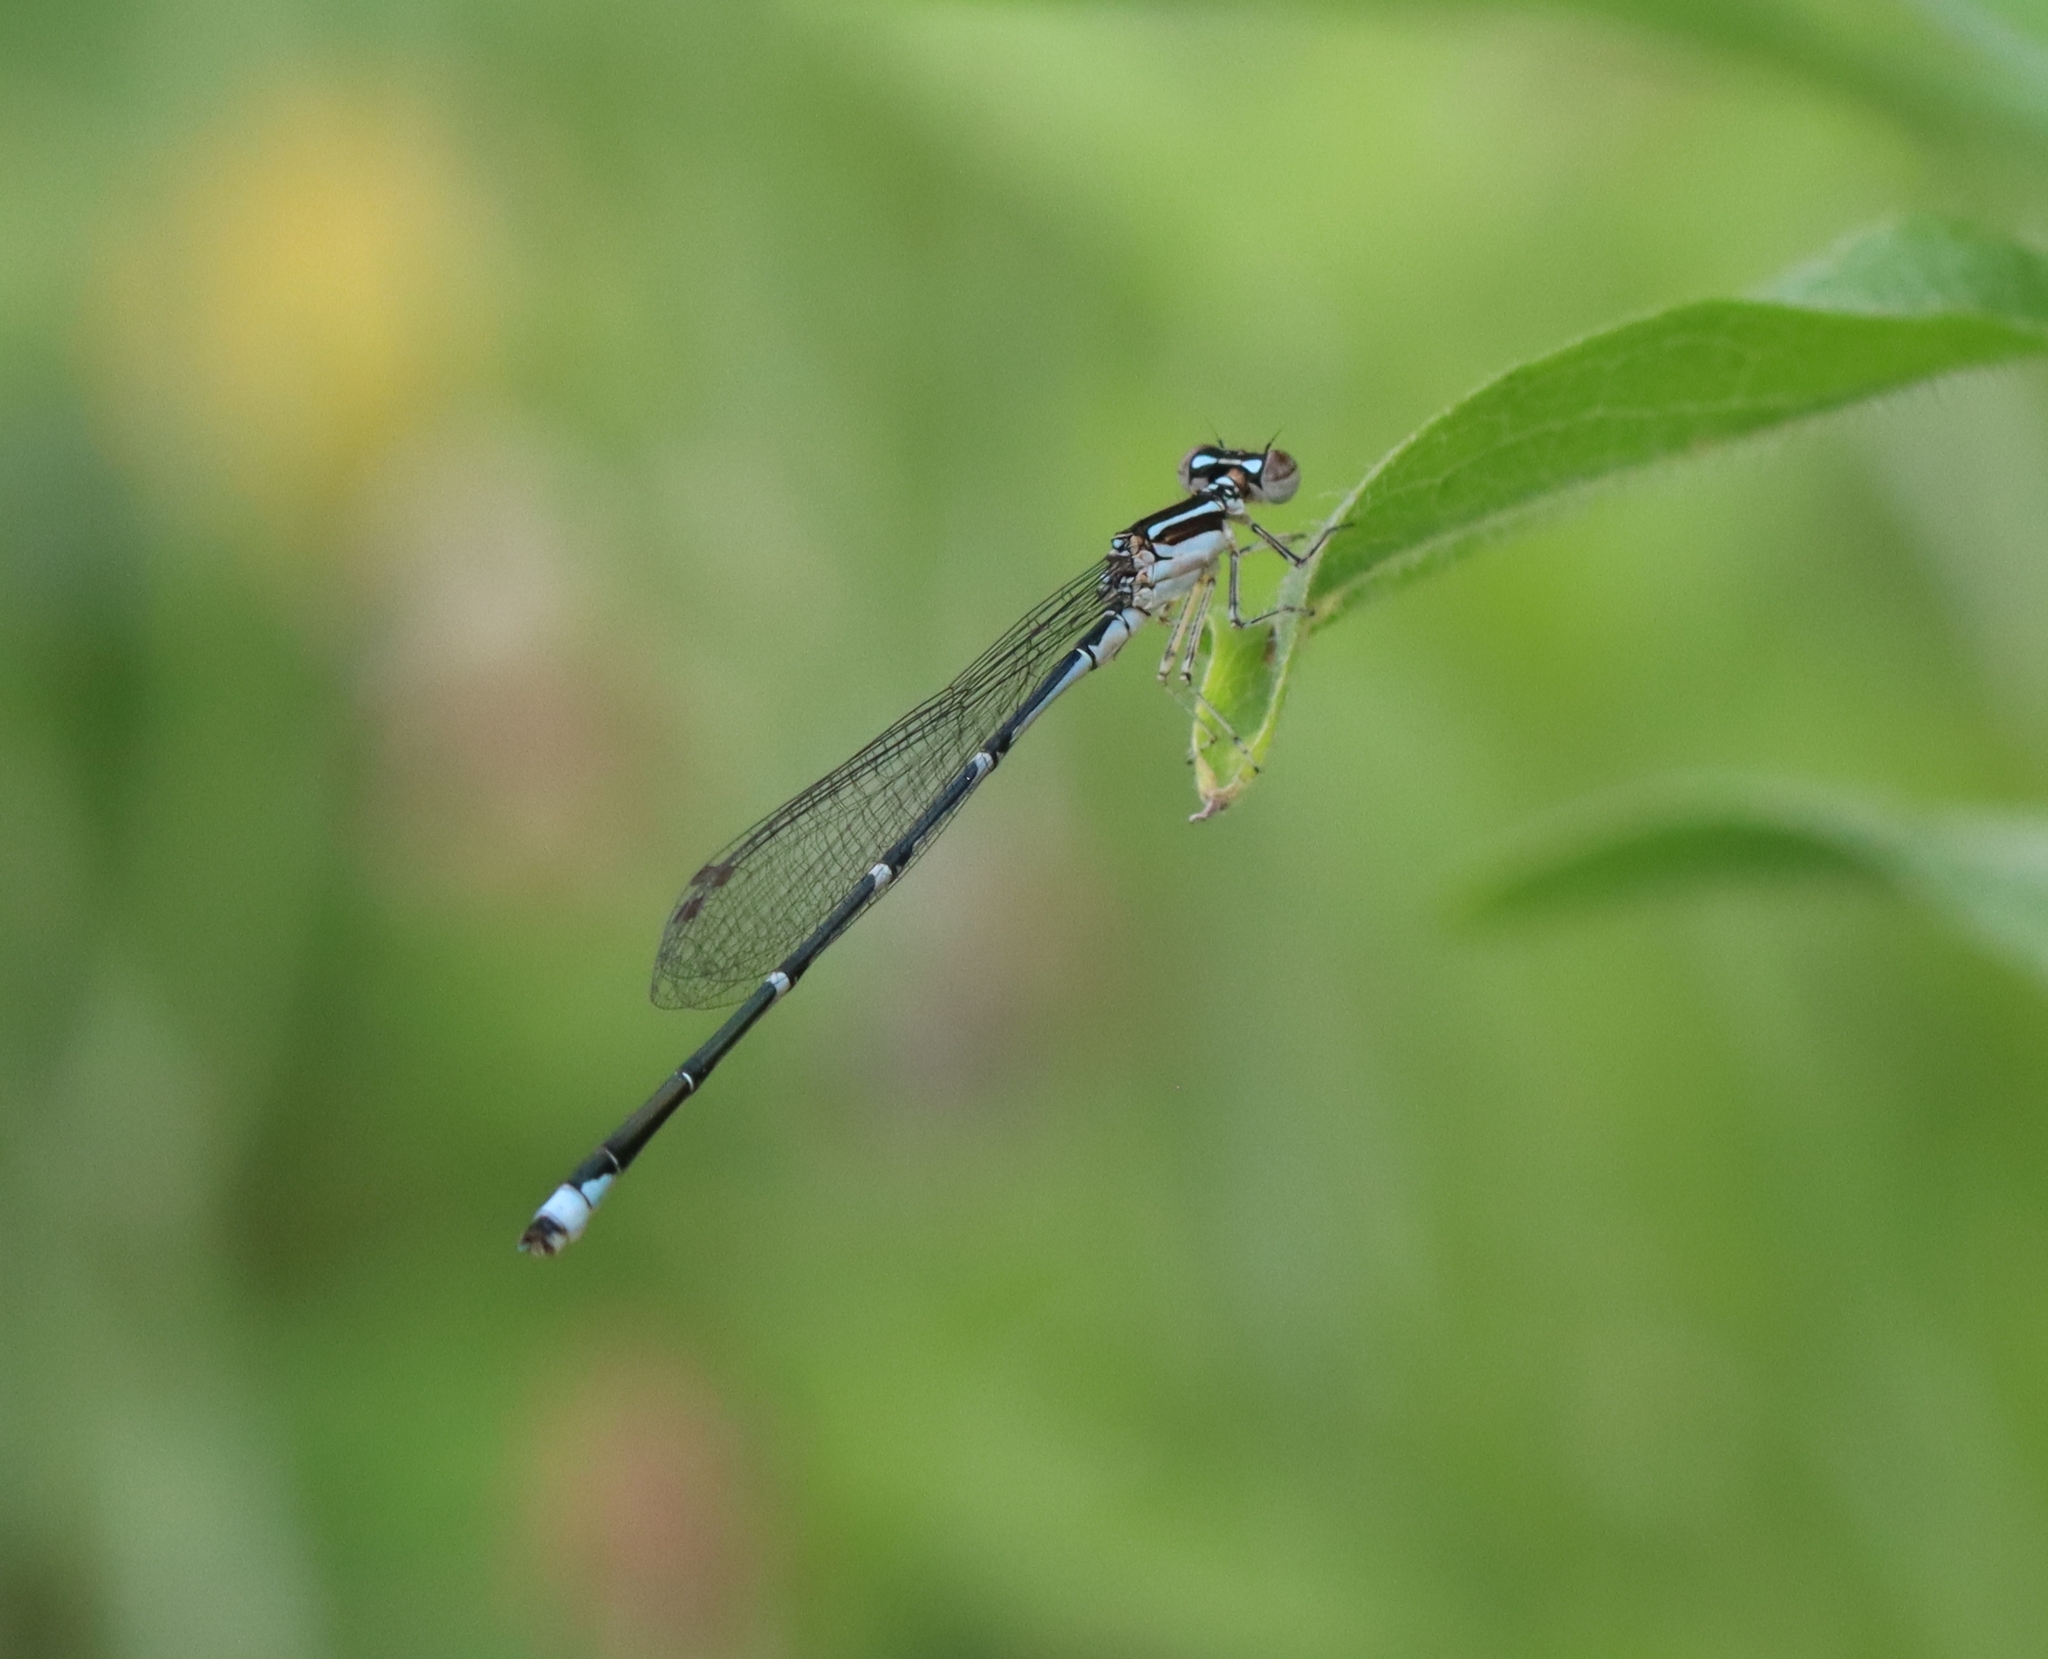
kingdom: Animalia
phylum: Arthropoda
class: Insecta
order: Odonata
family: Coenagrionidae
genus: Enallagma
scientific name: Enallagma exsulans
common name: Stream bluet
